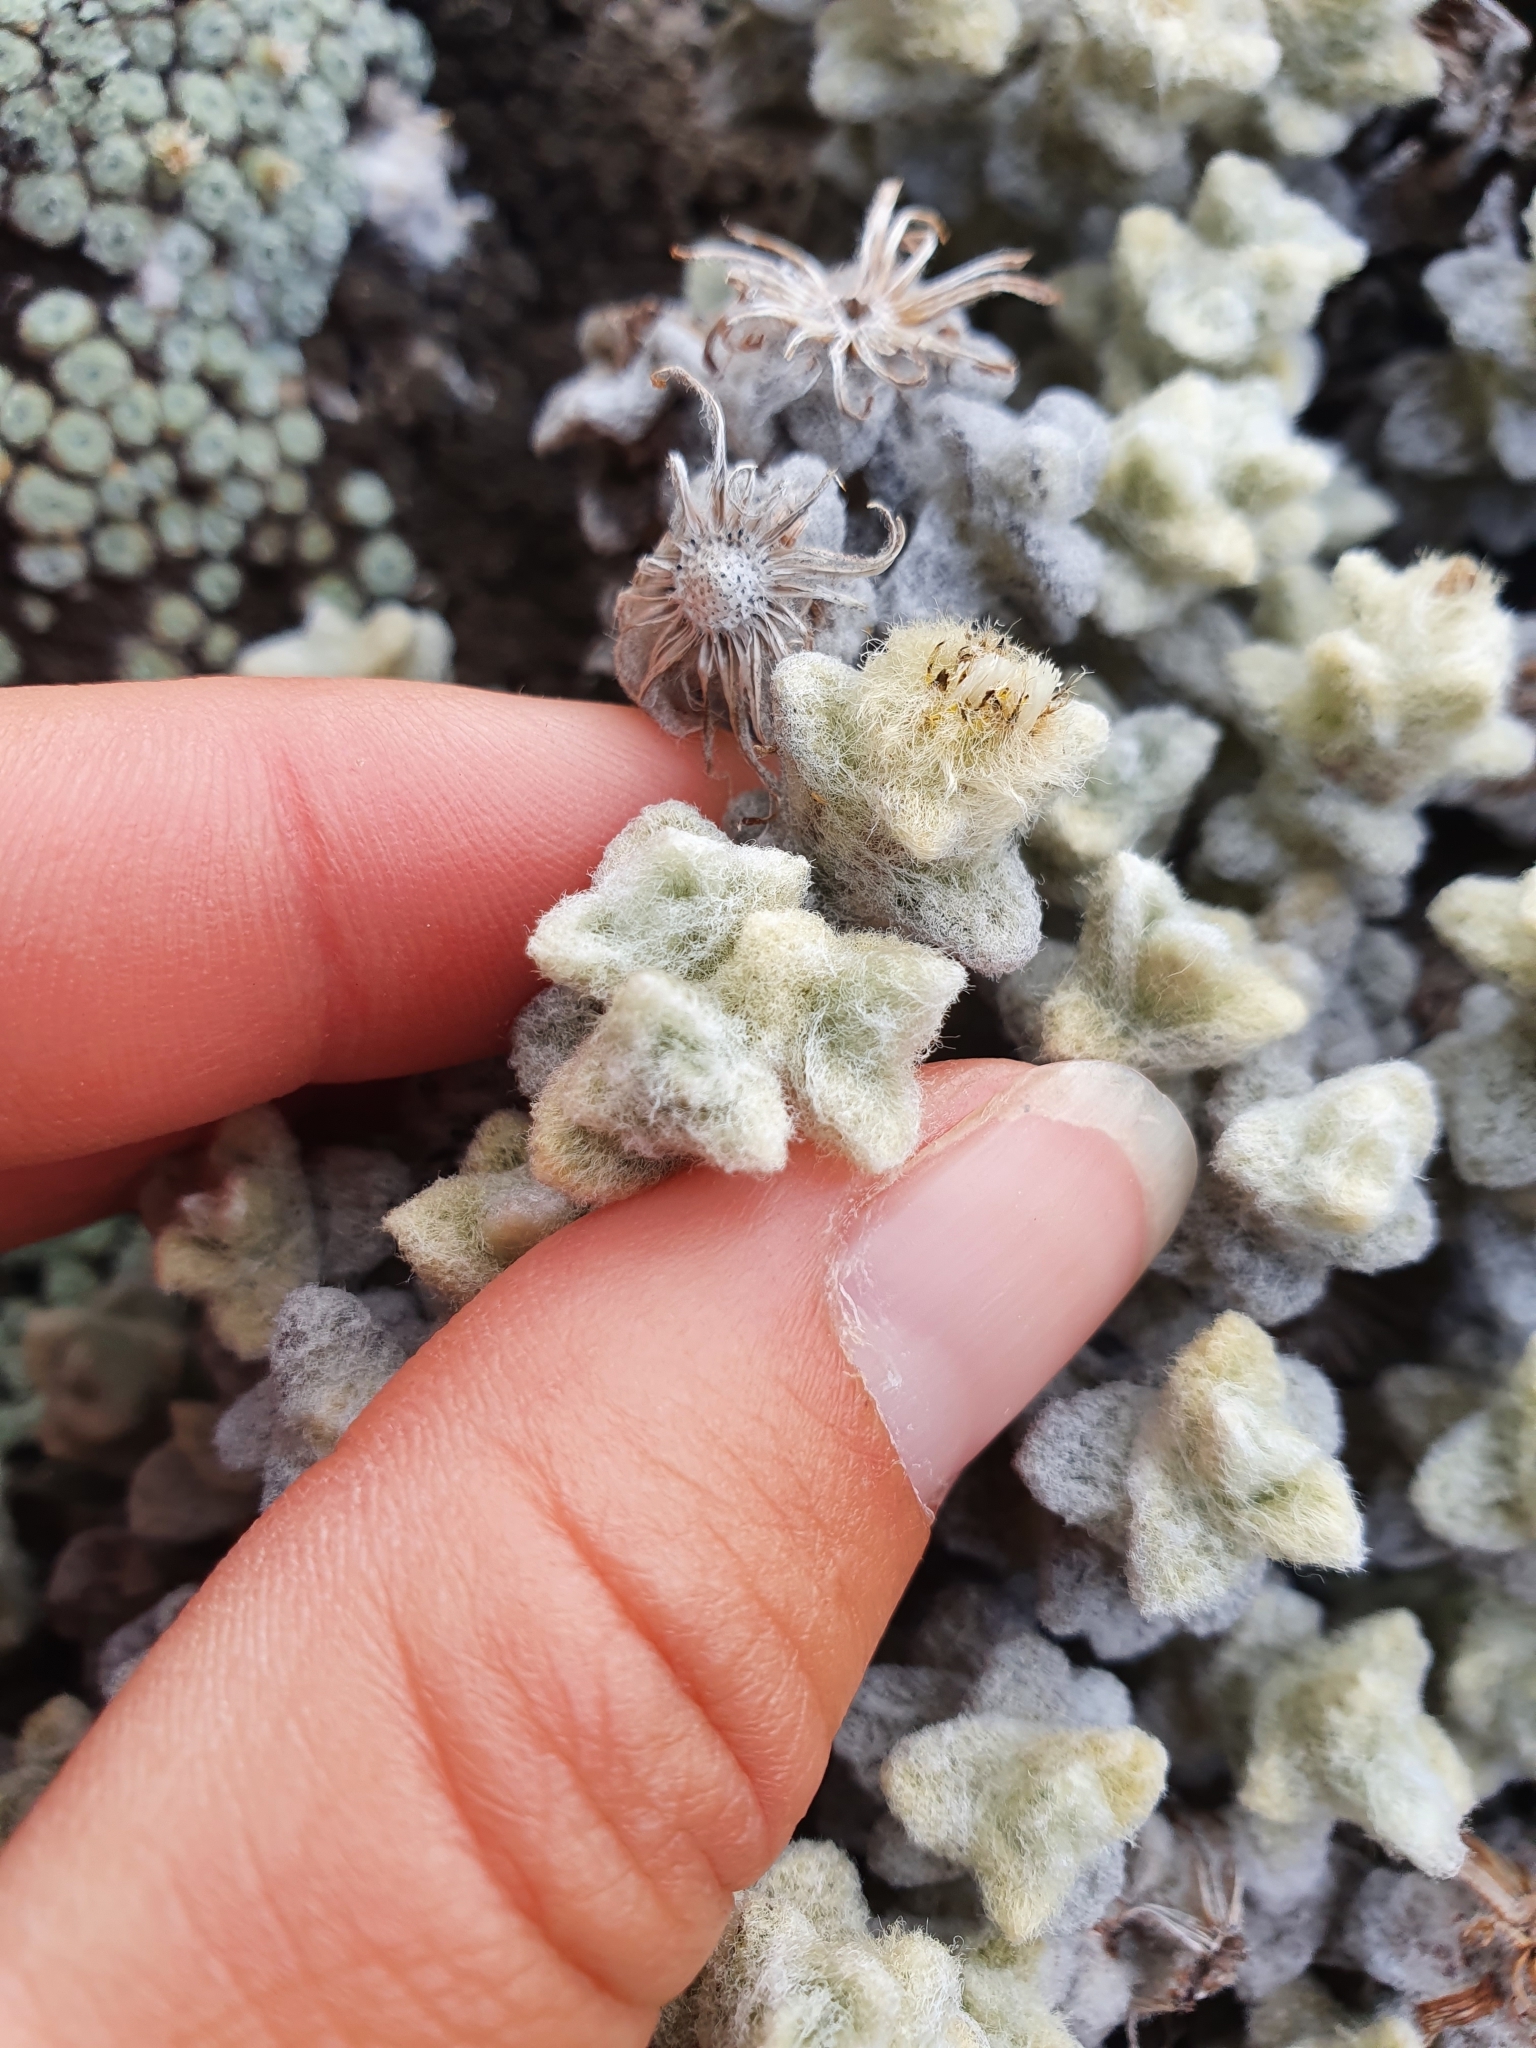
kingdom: Plantae
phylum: Tracheophyta
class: Magnoliopsida
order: Asterales
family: Asteraceae
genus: Haastia
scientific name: Haastia recurva
